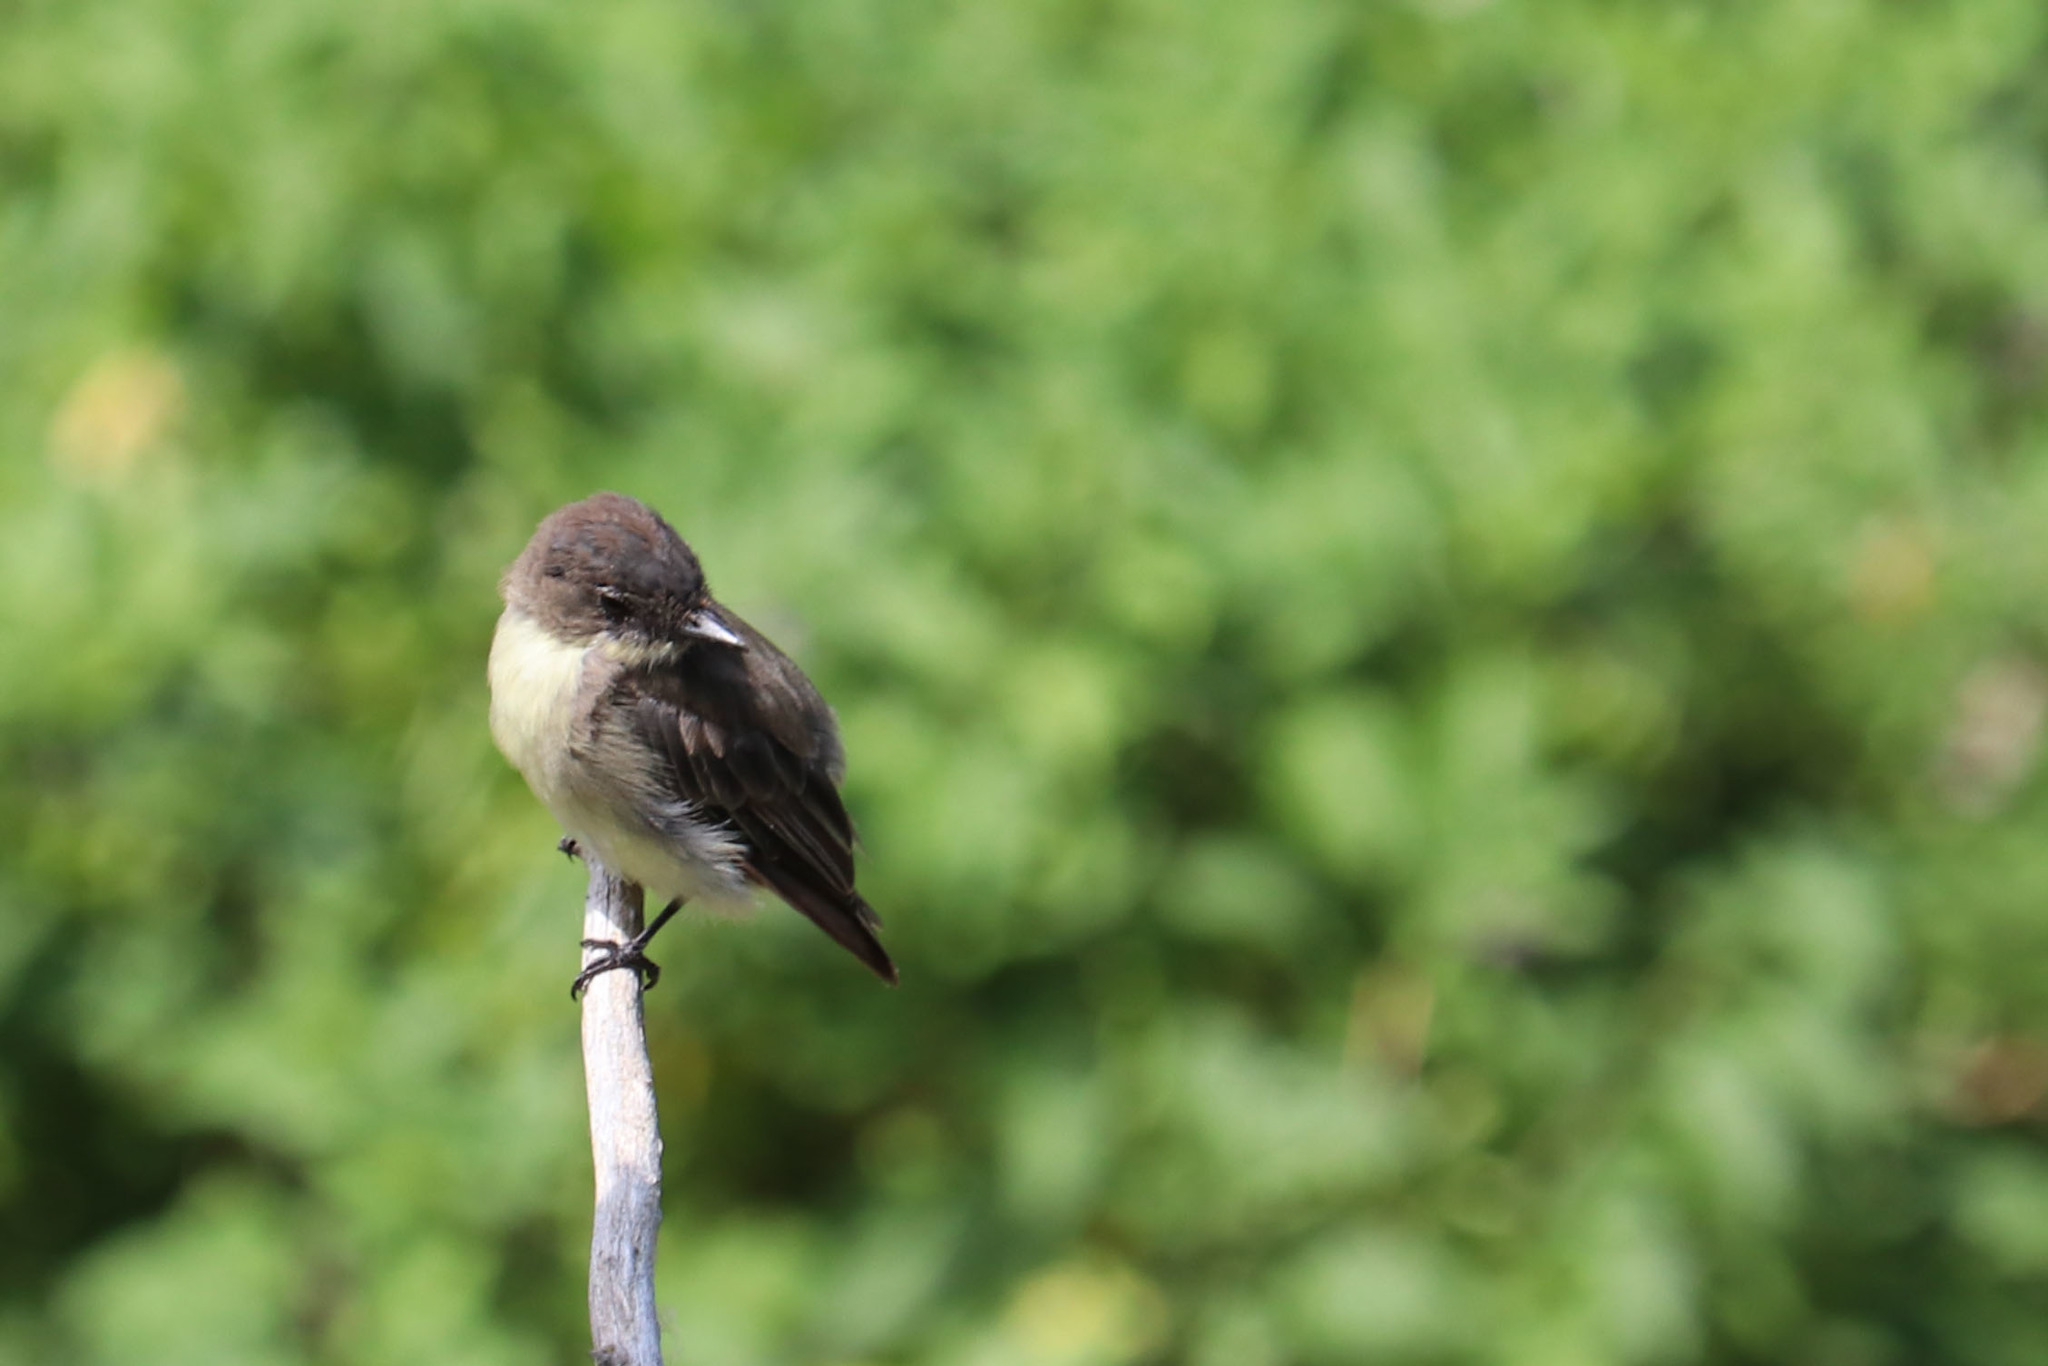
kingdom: Animalia
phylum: Chordata
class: Aves
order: Passeriformes
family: Tyrannidae
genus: Sayornis
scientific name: Sayornis phoebe
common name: Eastern phoebe
